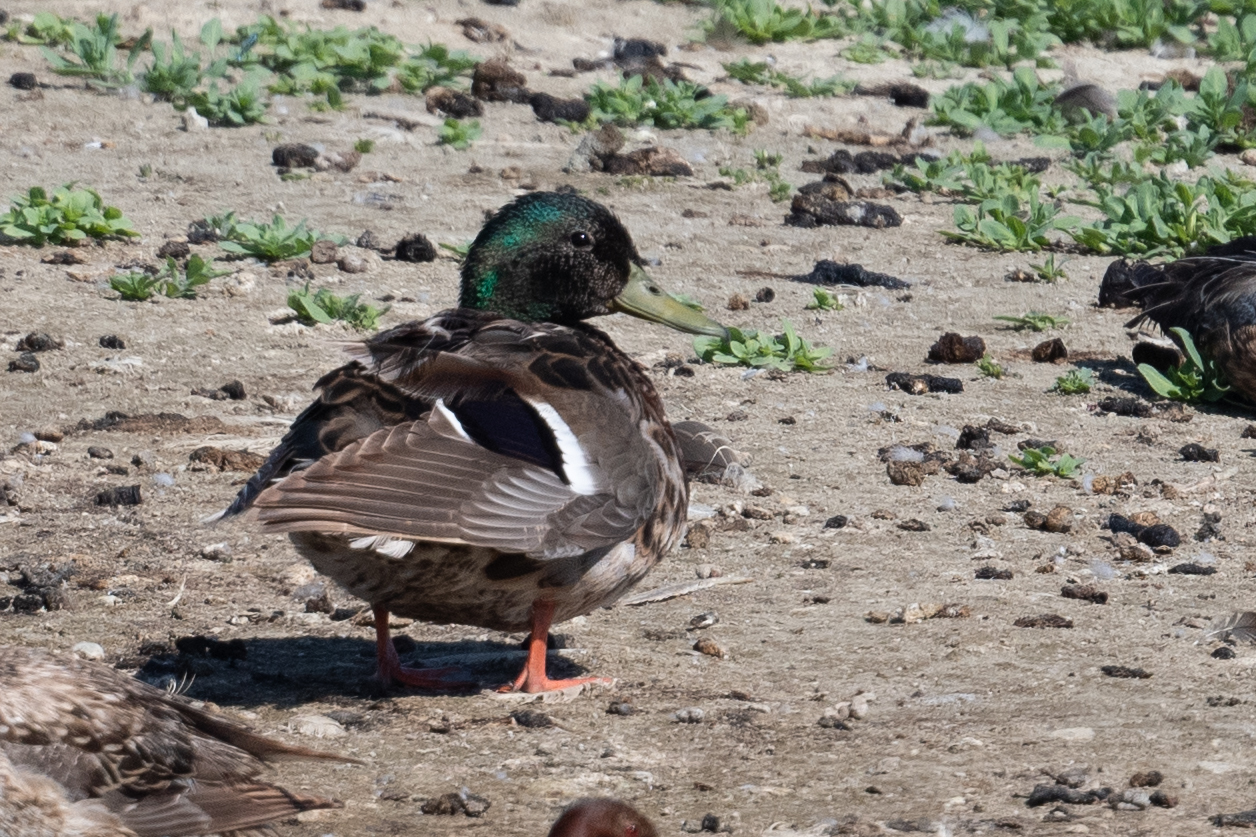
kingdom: Animalia
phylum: Chordata
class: Aves
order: Anseriformes
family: Anatidae
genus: Anas
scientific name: Anas platyrhynchos
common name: Mallard
